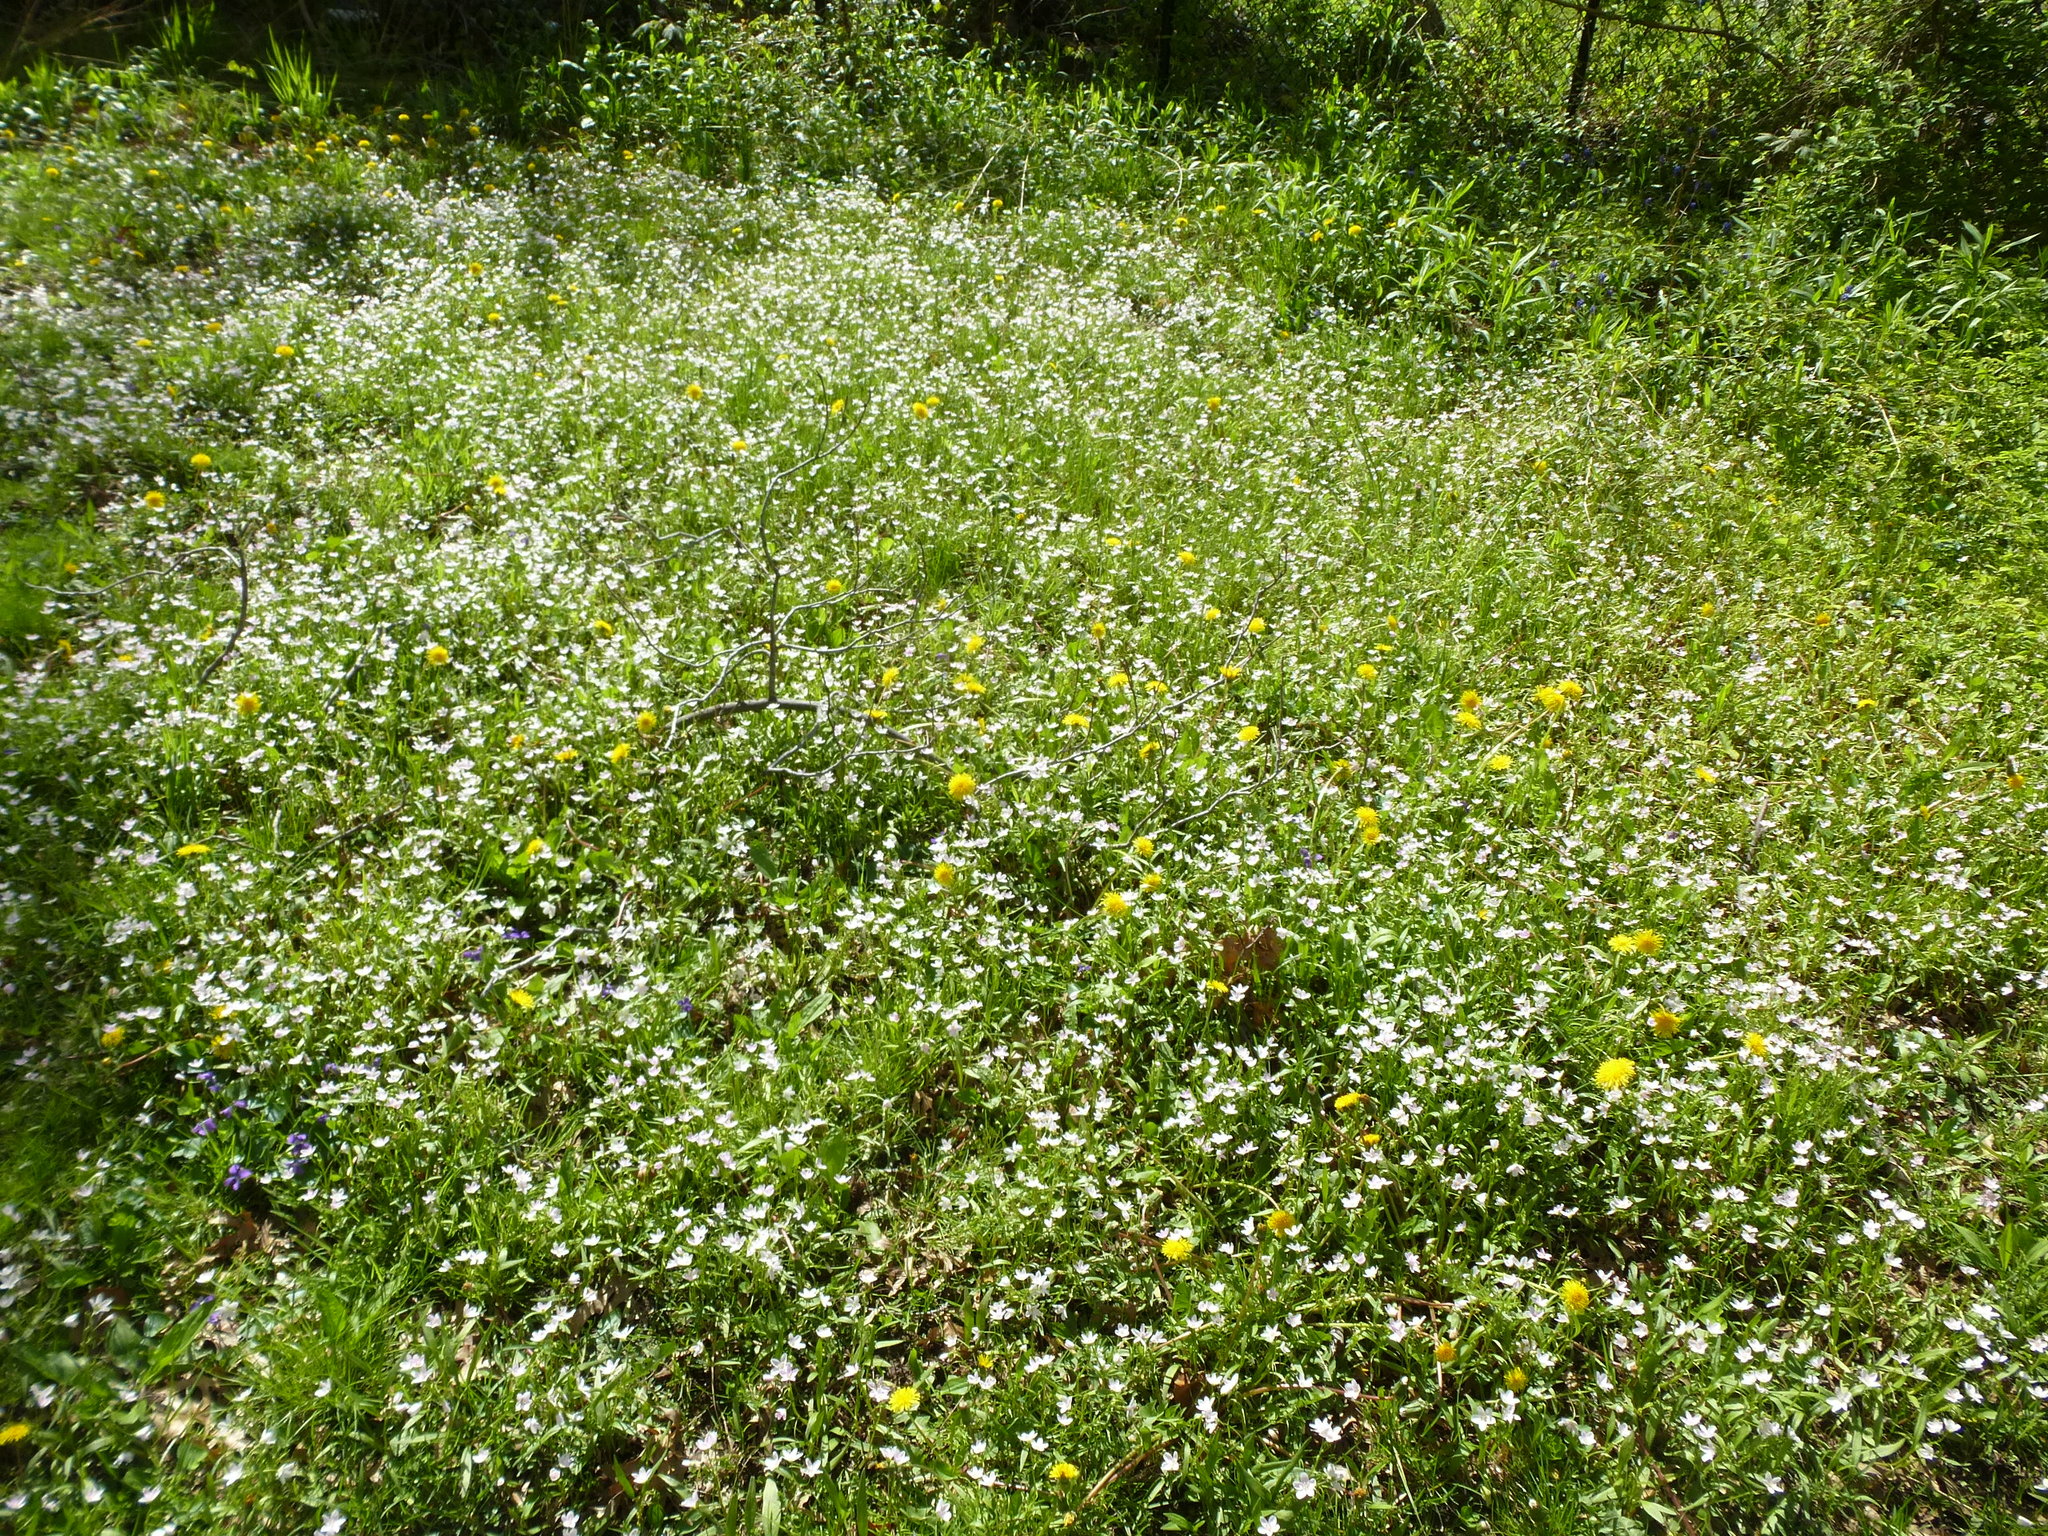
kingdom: Plantae
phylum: Tracheophyta
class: Magnoliopsida
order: Caryophyllales
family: Montiaceae
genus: Claytonia
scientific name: Claytonia virginica
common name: Virginia springbeauty
